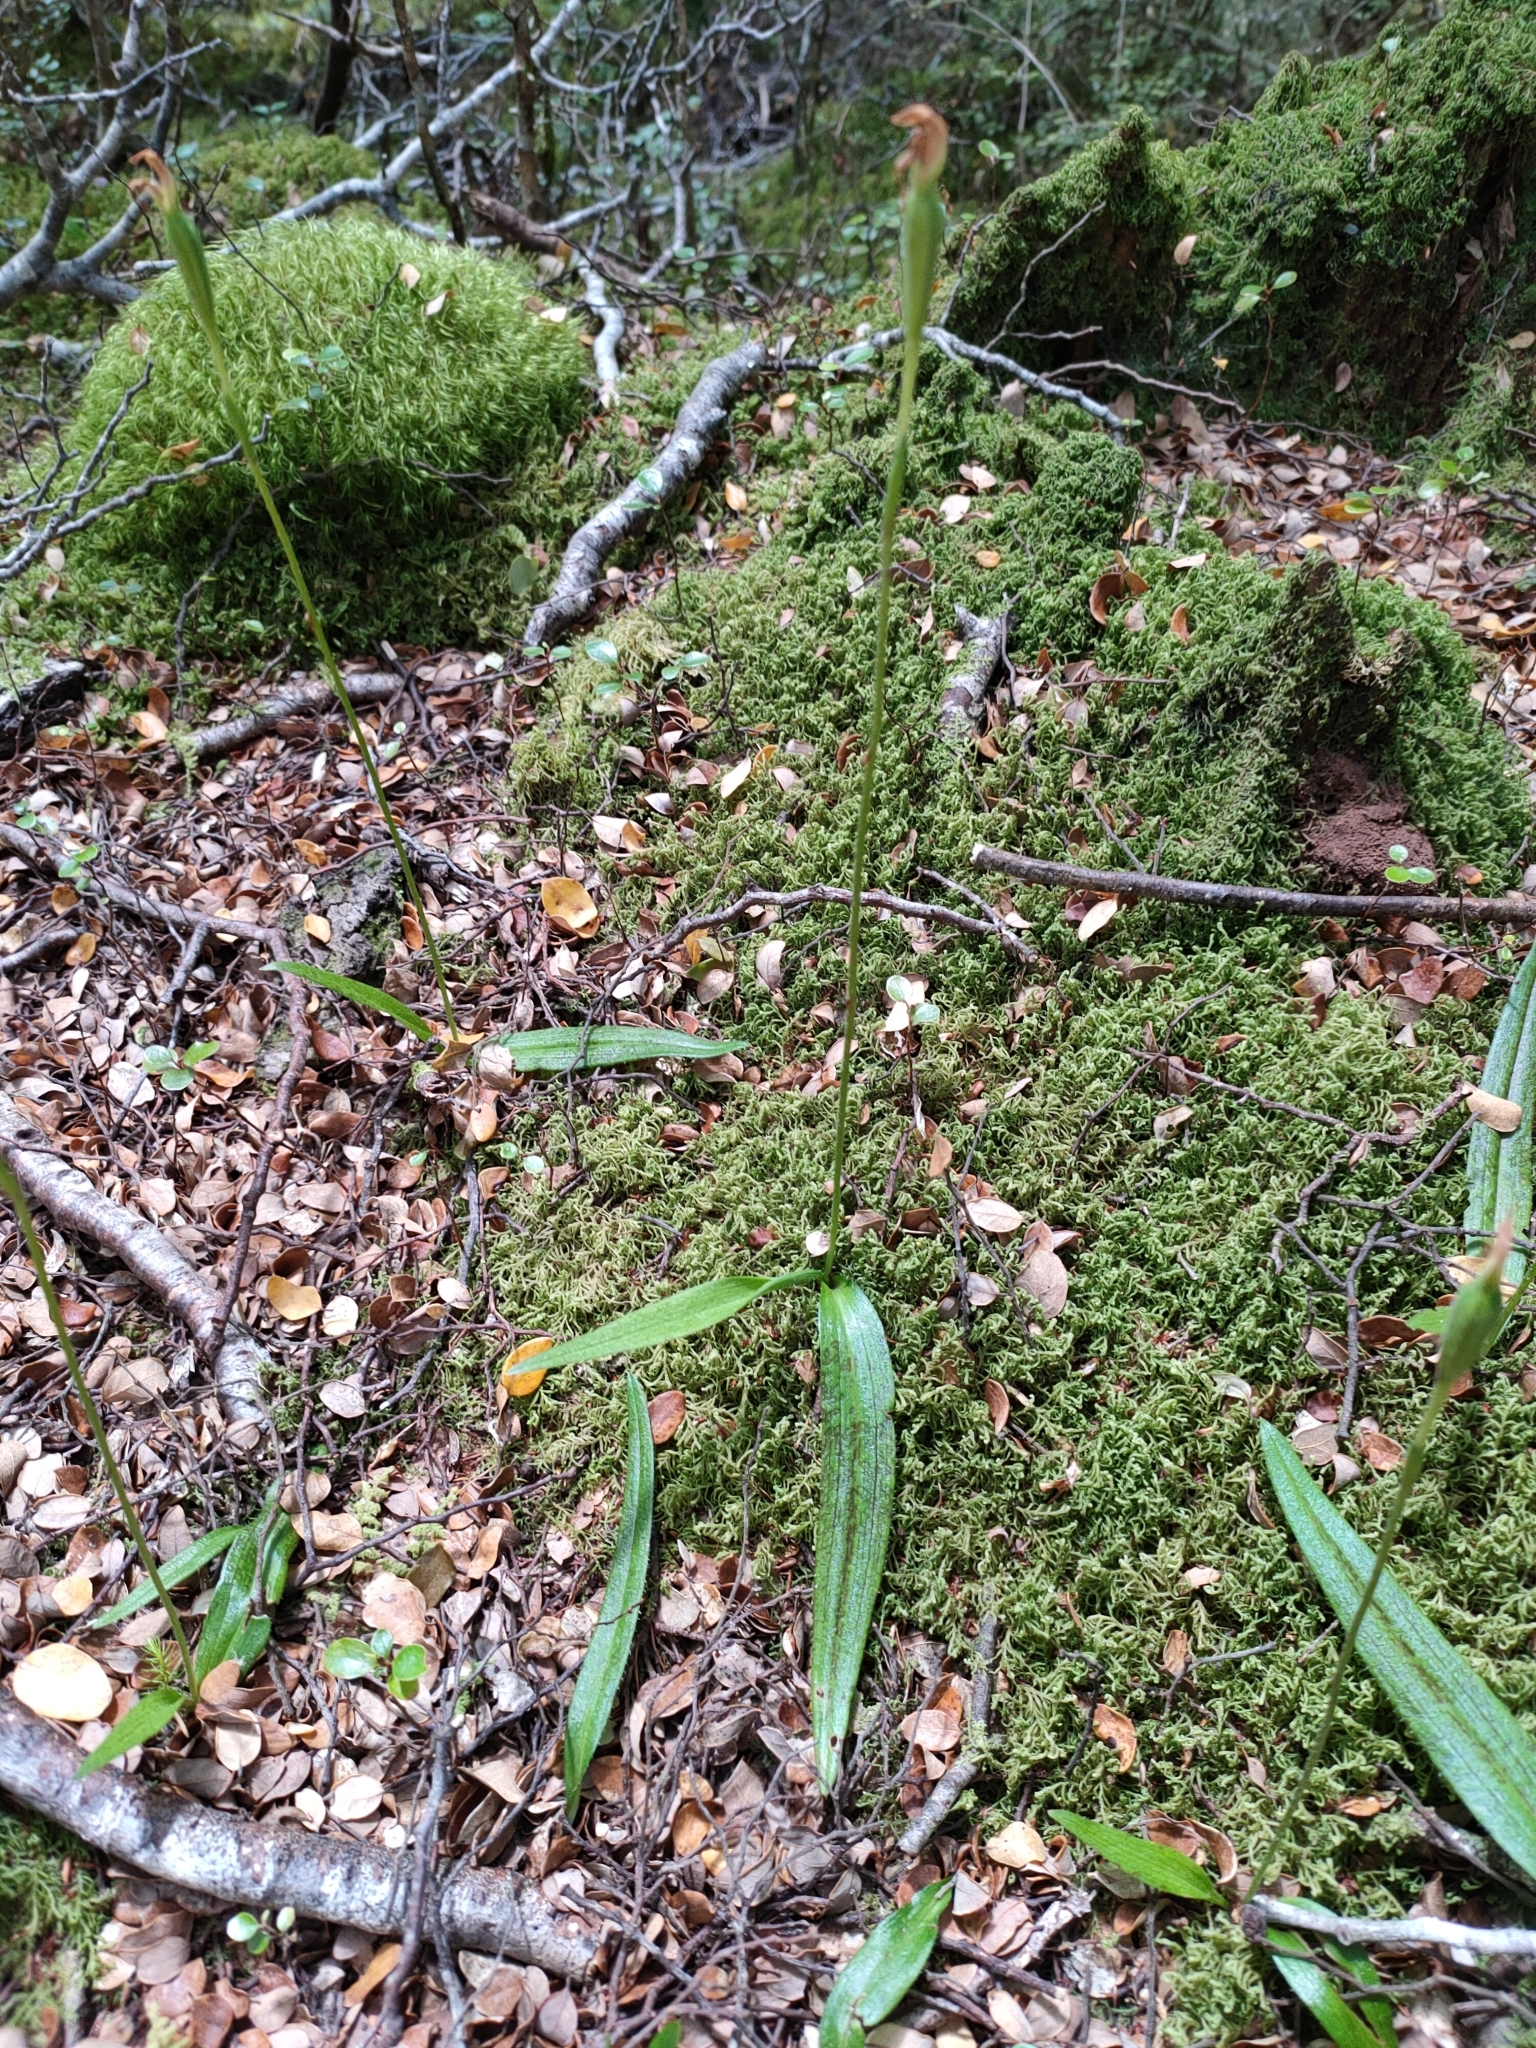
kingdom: Plantae
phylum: Tracheophyta
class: Liliopsida
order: Asparagales
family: Orchidaceae
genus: Aporostylis
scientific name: Aporostylis bifolia
